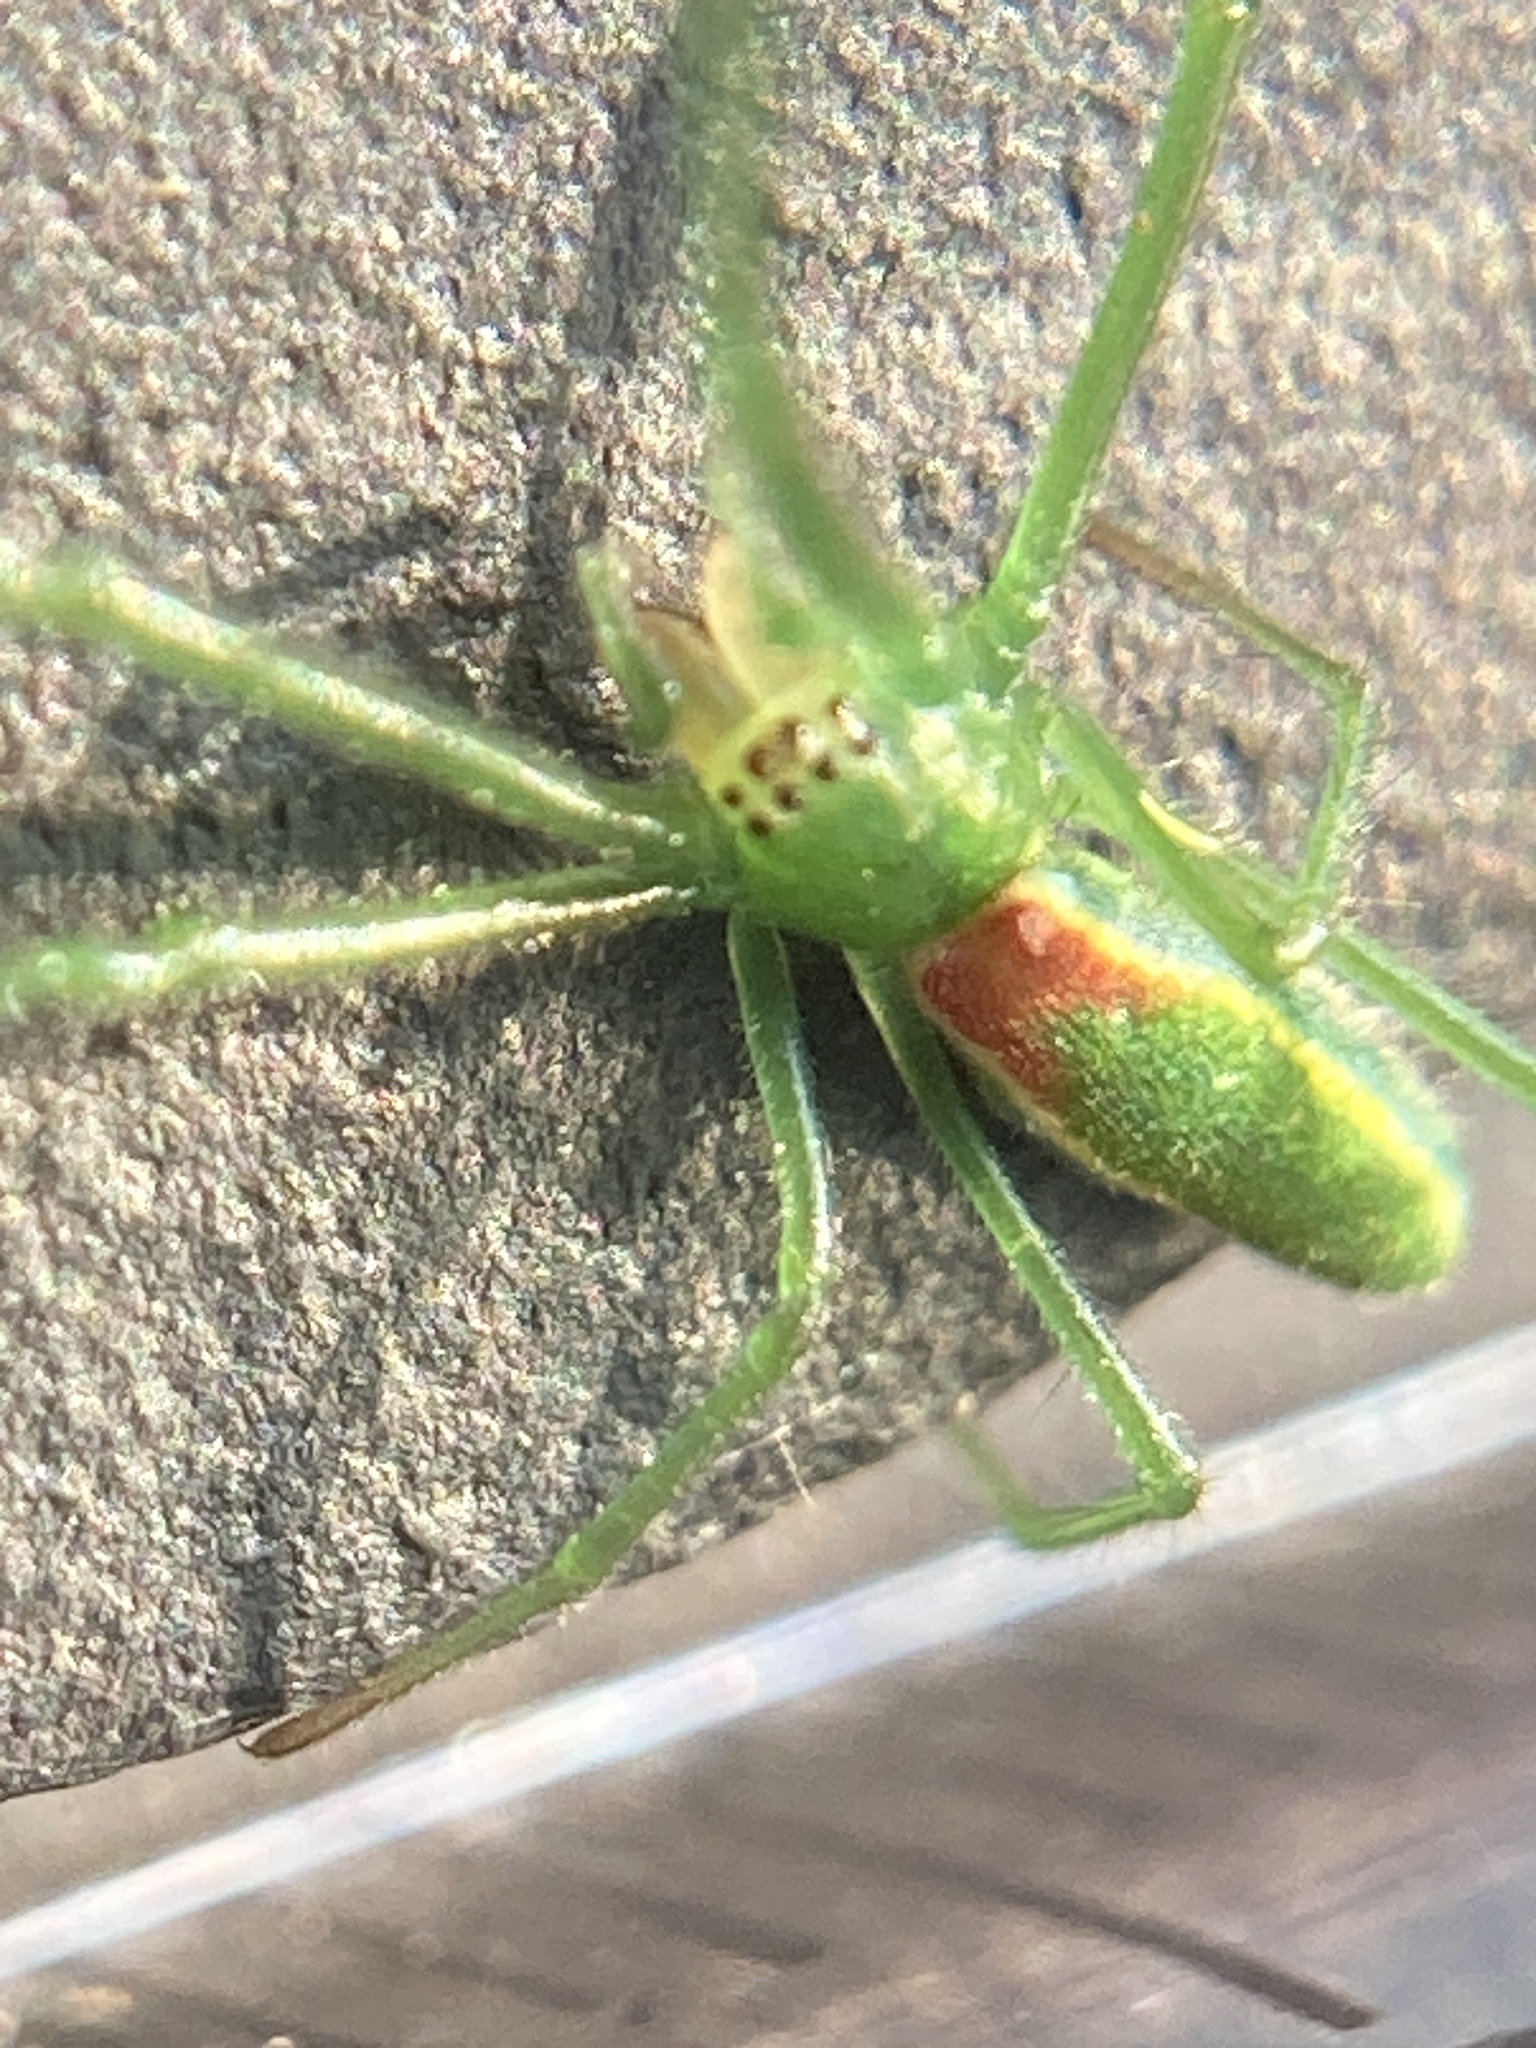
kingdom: Animalia
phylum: Arthropoda
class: Arachnida
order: Araneae
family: Tetragnathidae
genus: Tetragnatha
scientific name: Tetragnatha viridis
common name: Green long-jawed spider
